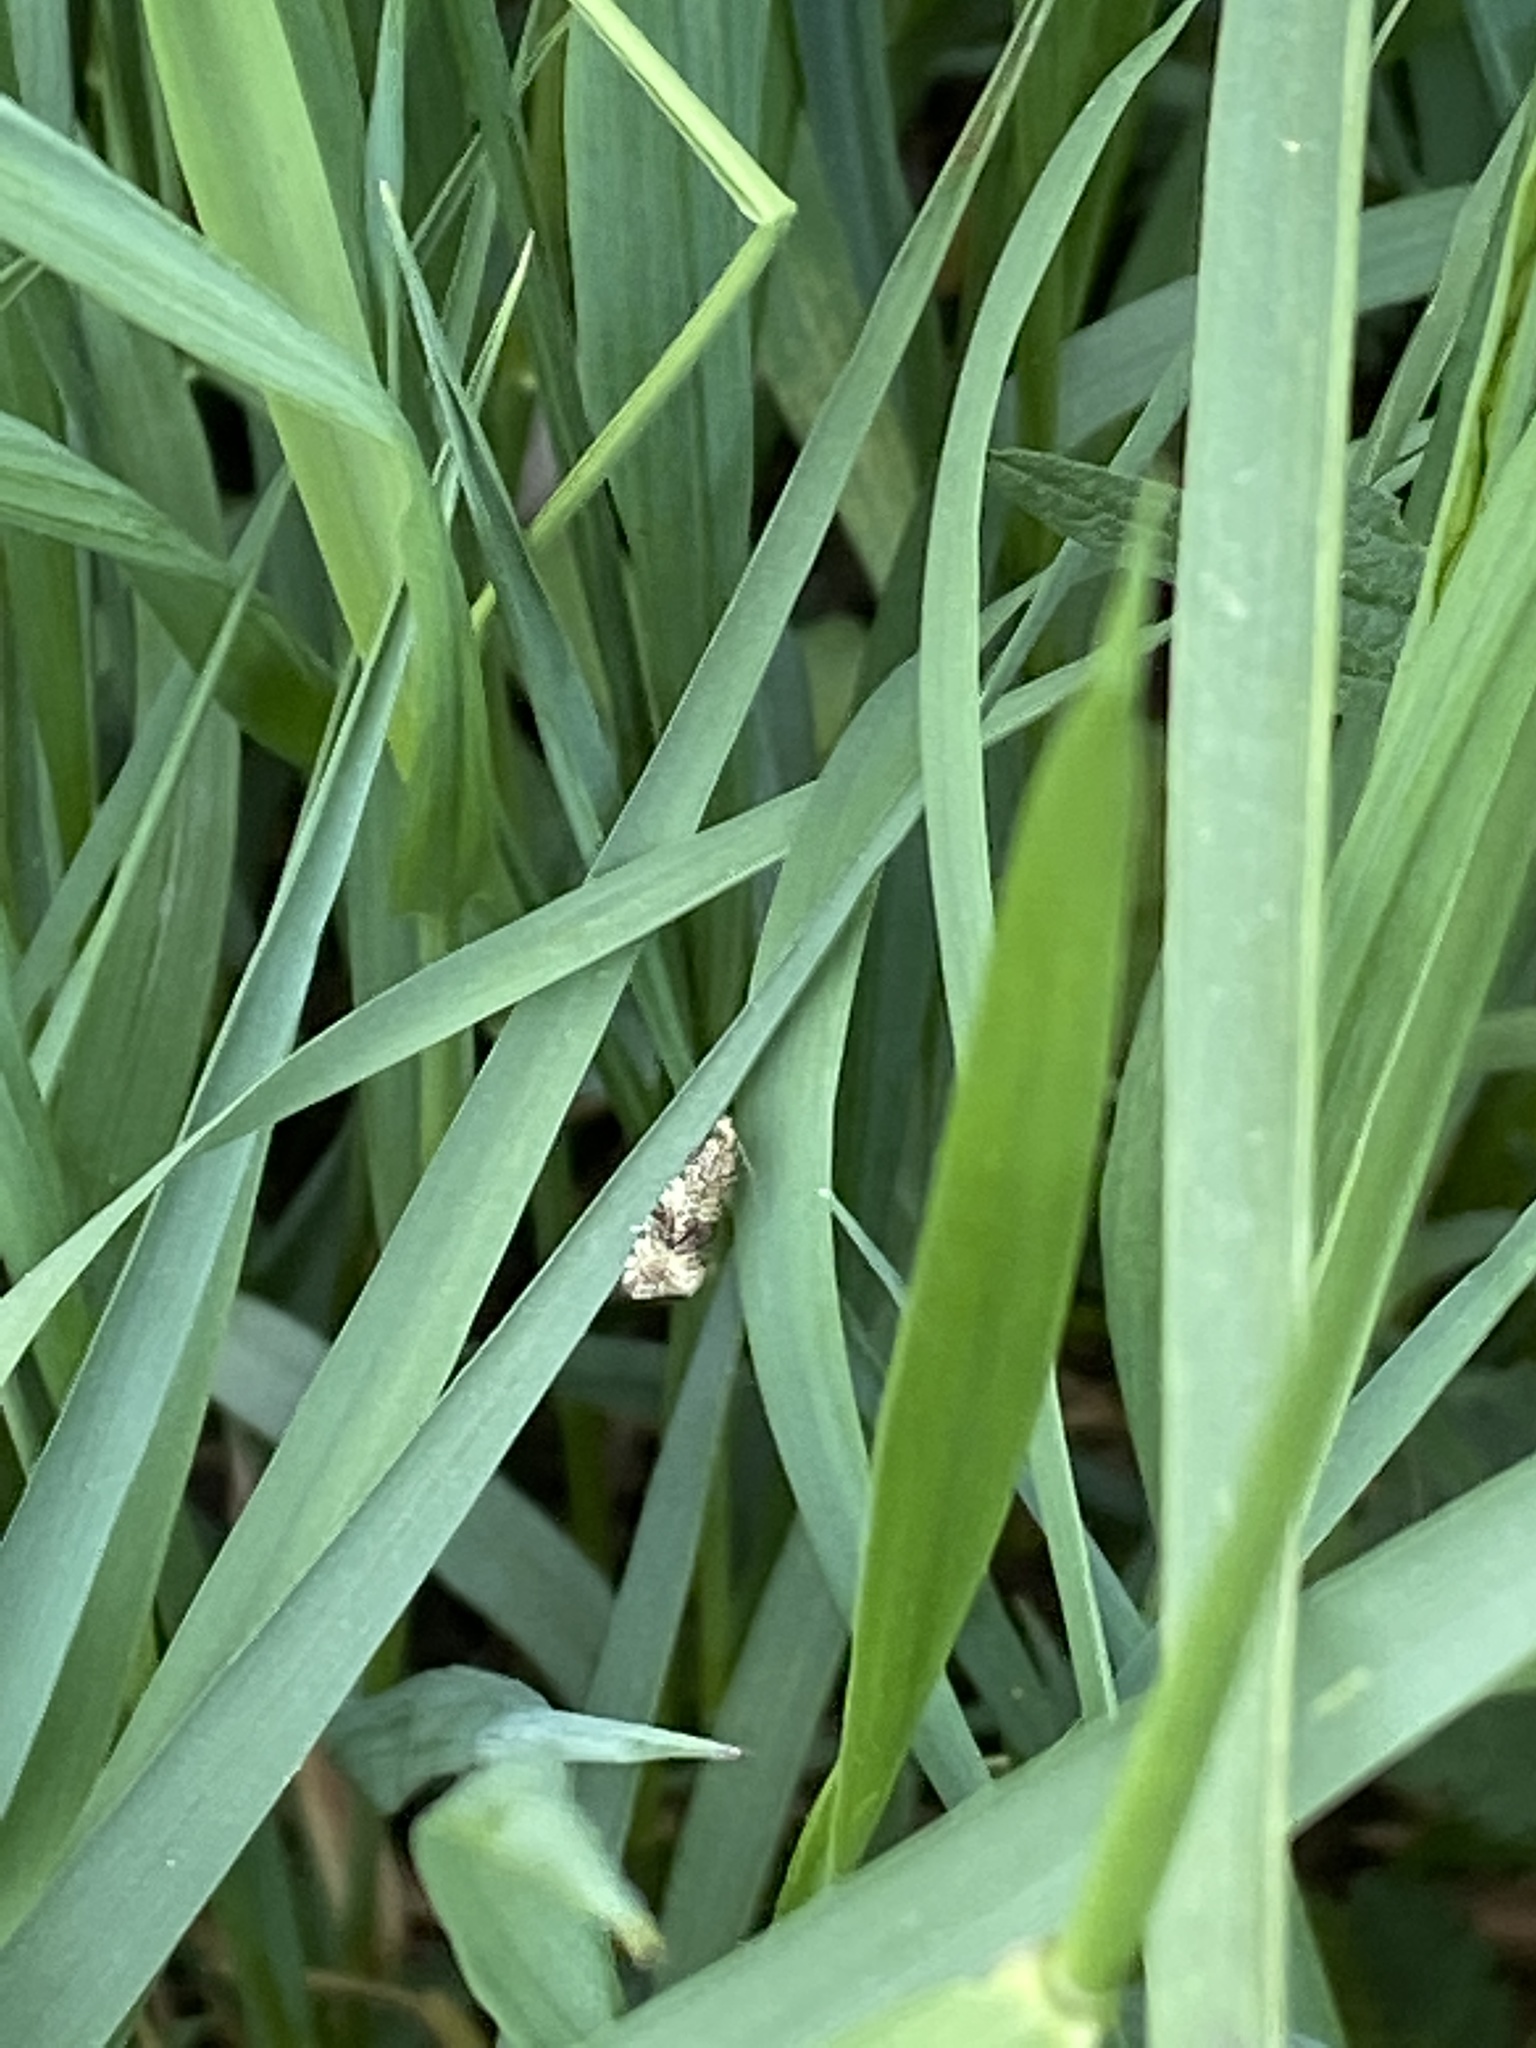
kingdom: Animalia
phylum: Arthropoda
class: Insecta
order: Lepidoptera
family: Tortricidae
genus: Syricoris
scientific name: Syricoris lacunana
